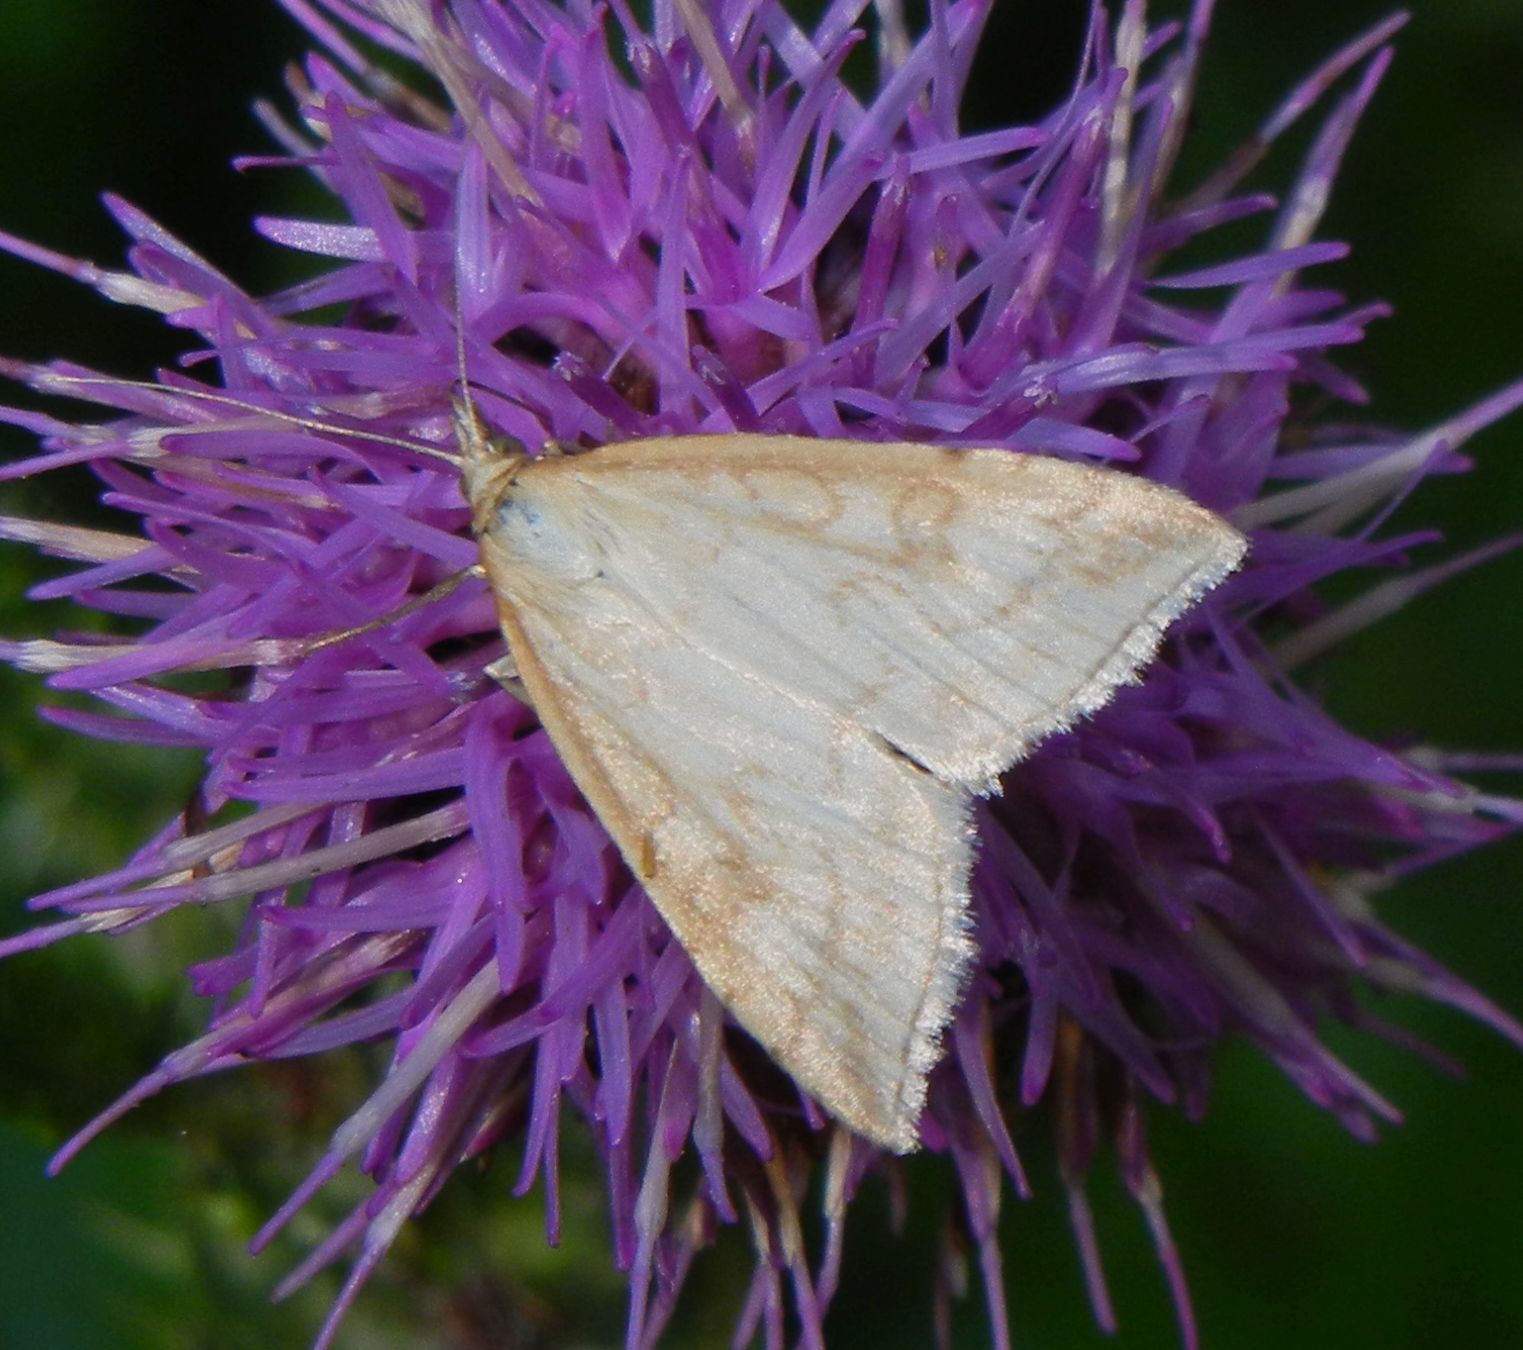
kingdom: Animalia
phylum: Arthropoda
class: Insecta
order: Lepidoptera
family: Crambidae
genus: Udea
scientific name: Udea lutealis
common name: Pale straw pearl
